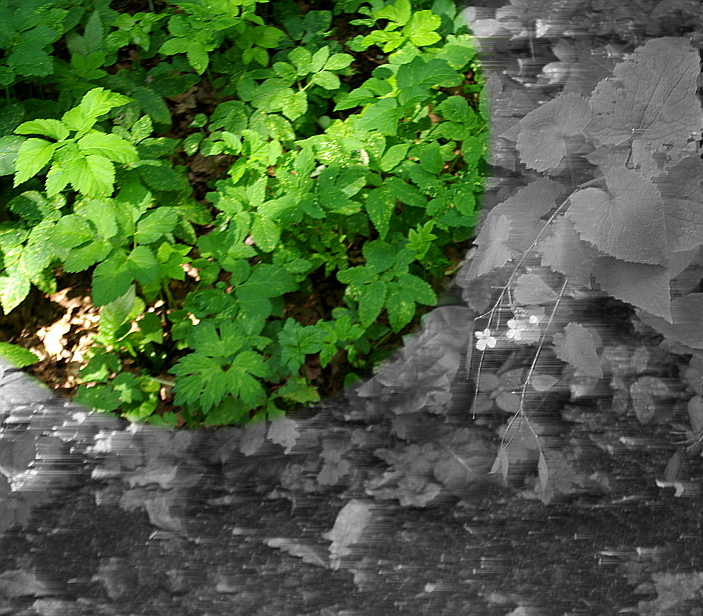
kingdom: Plantae
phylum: Tracheophyta
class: Magnoliopsida
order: Apiales
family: Apiaceae
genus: Aegopodium
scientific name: Aegopodium podagraria
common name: Ground-elder
